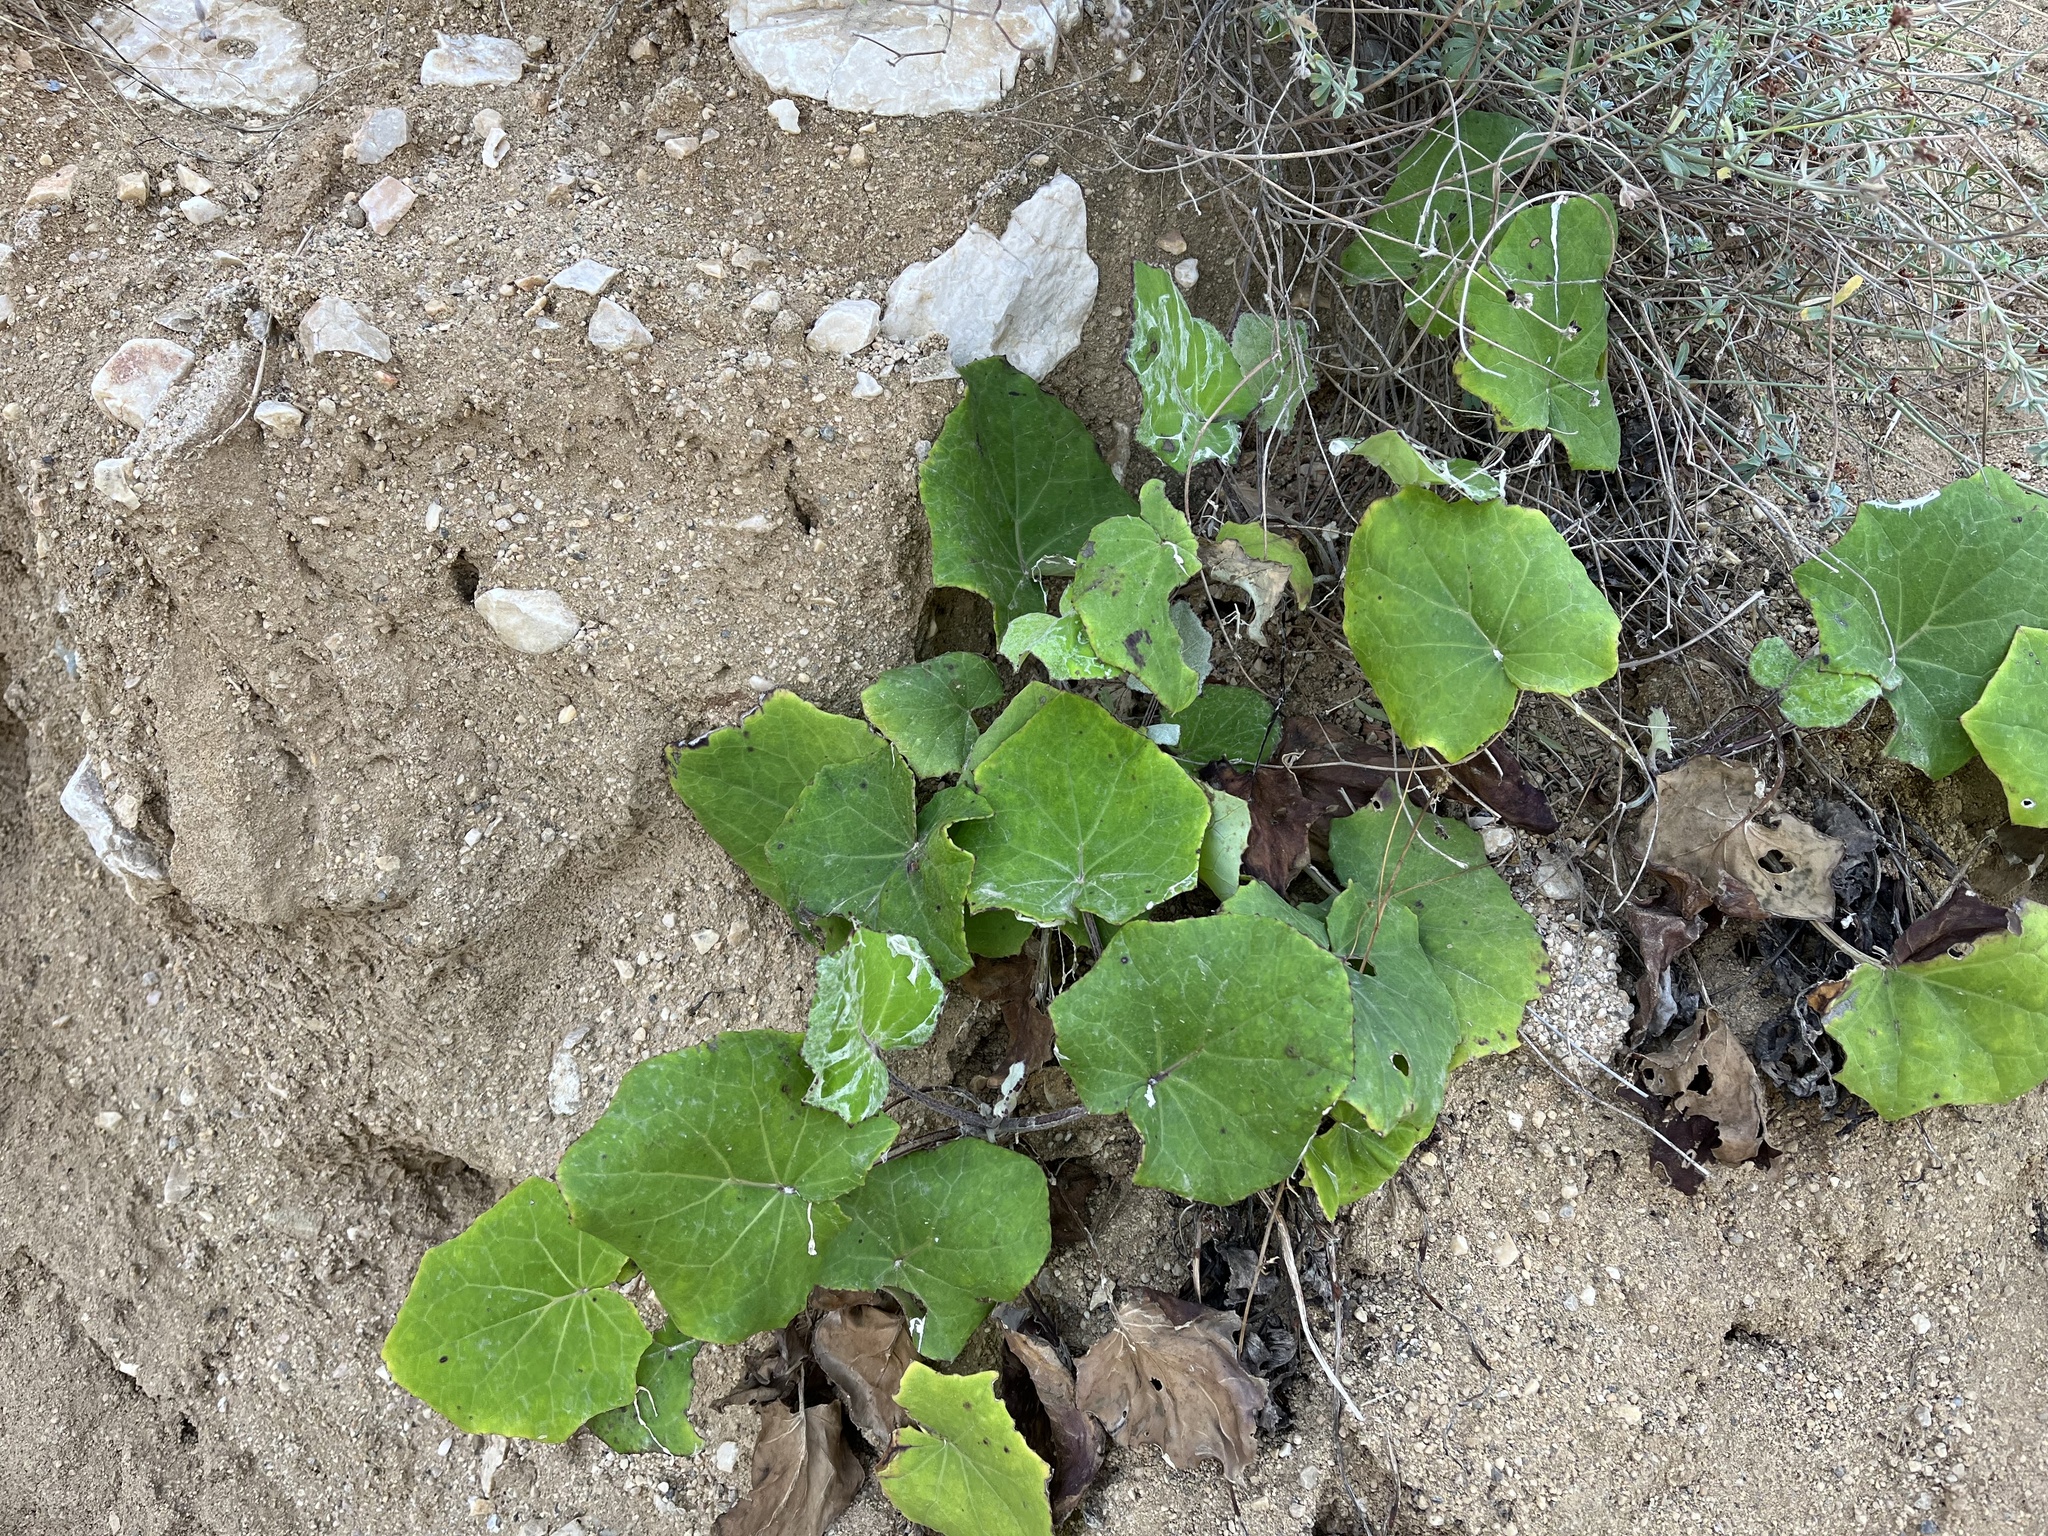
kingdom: Plantae
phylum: Tracheophyta
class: Magnoliopsida
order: Asterales
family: Asteraceae
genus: Tussilago
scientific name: Tussilago farfara
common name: Coltsfoot
